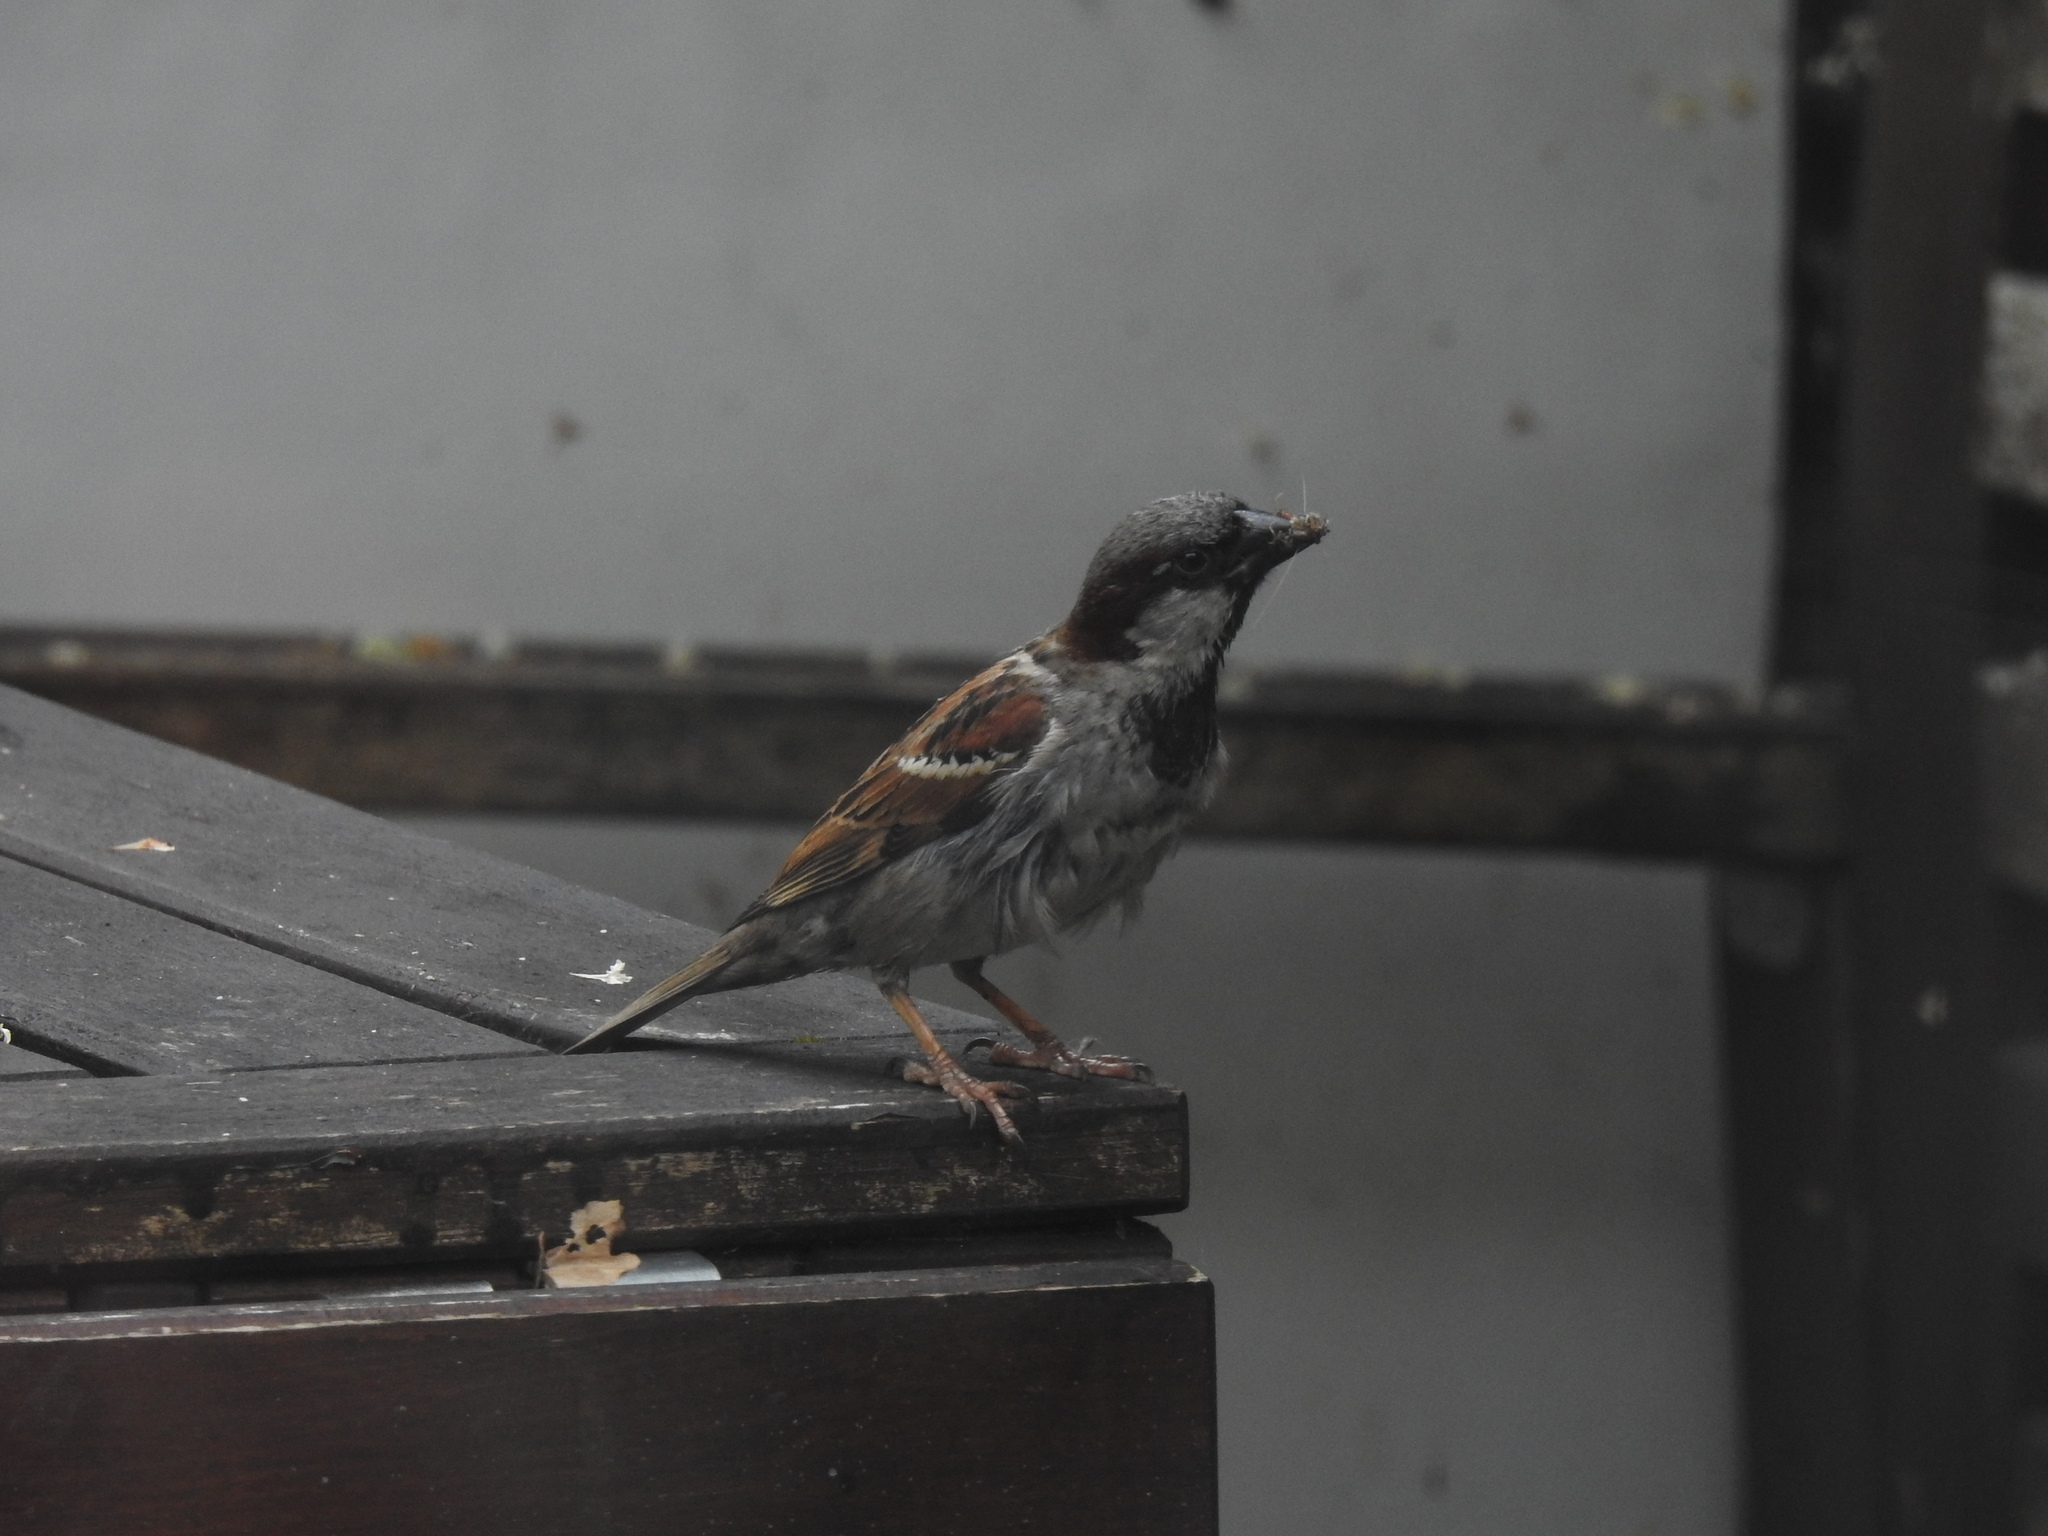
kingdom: Animalia
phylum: Chordata
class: Aves
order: Passeriformes
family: Passeridae
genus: Passer
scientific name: Passer domesticus
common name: House sparrow
